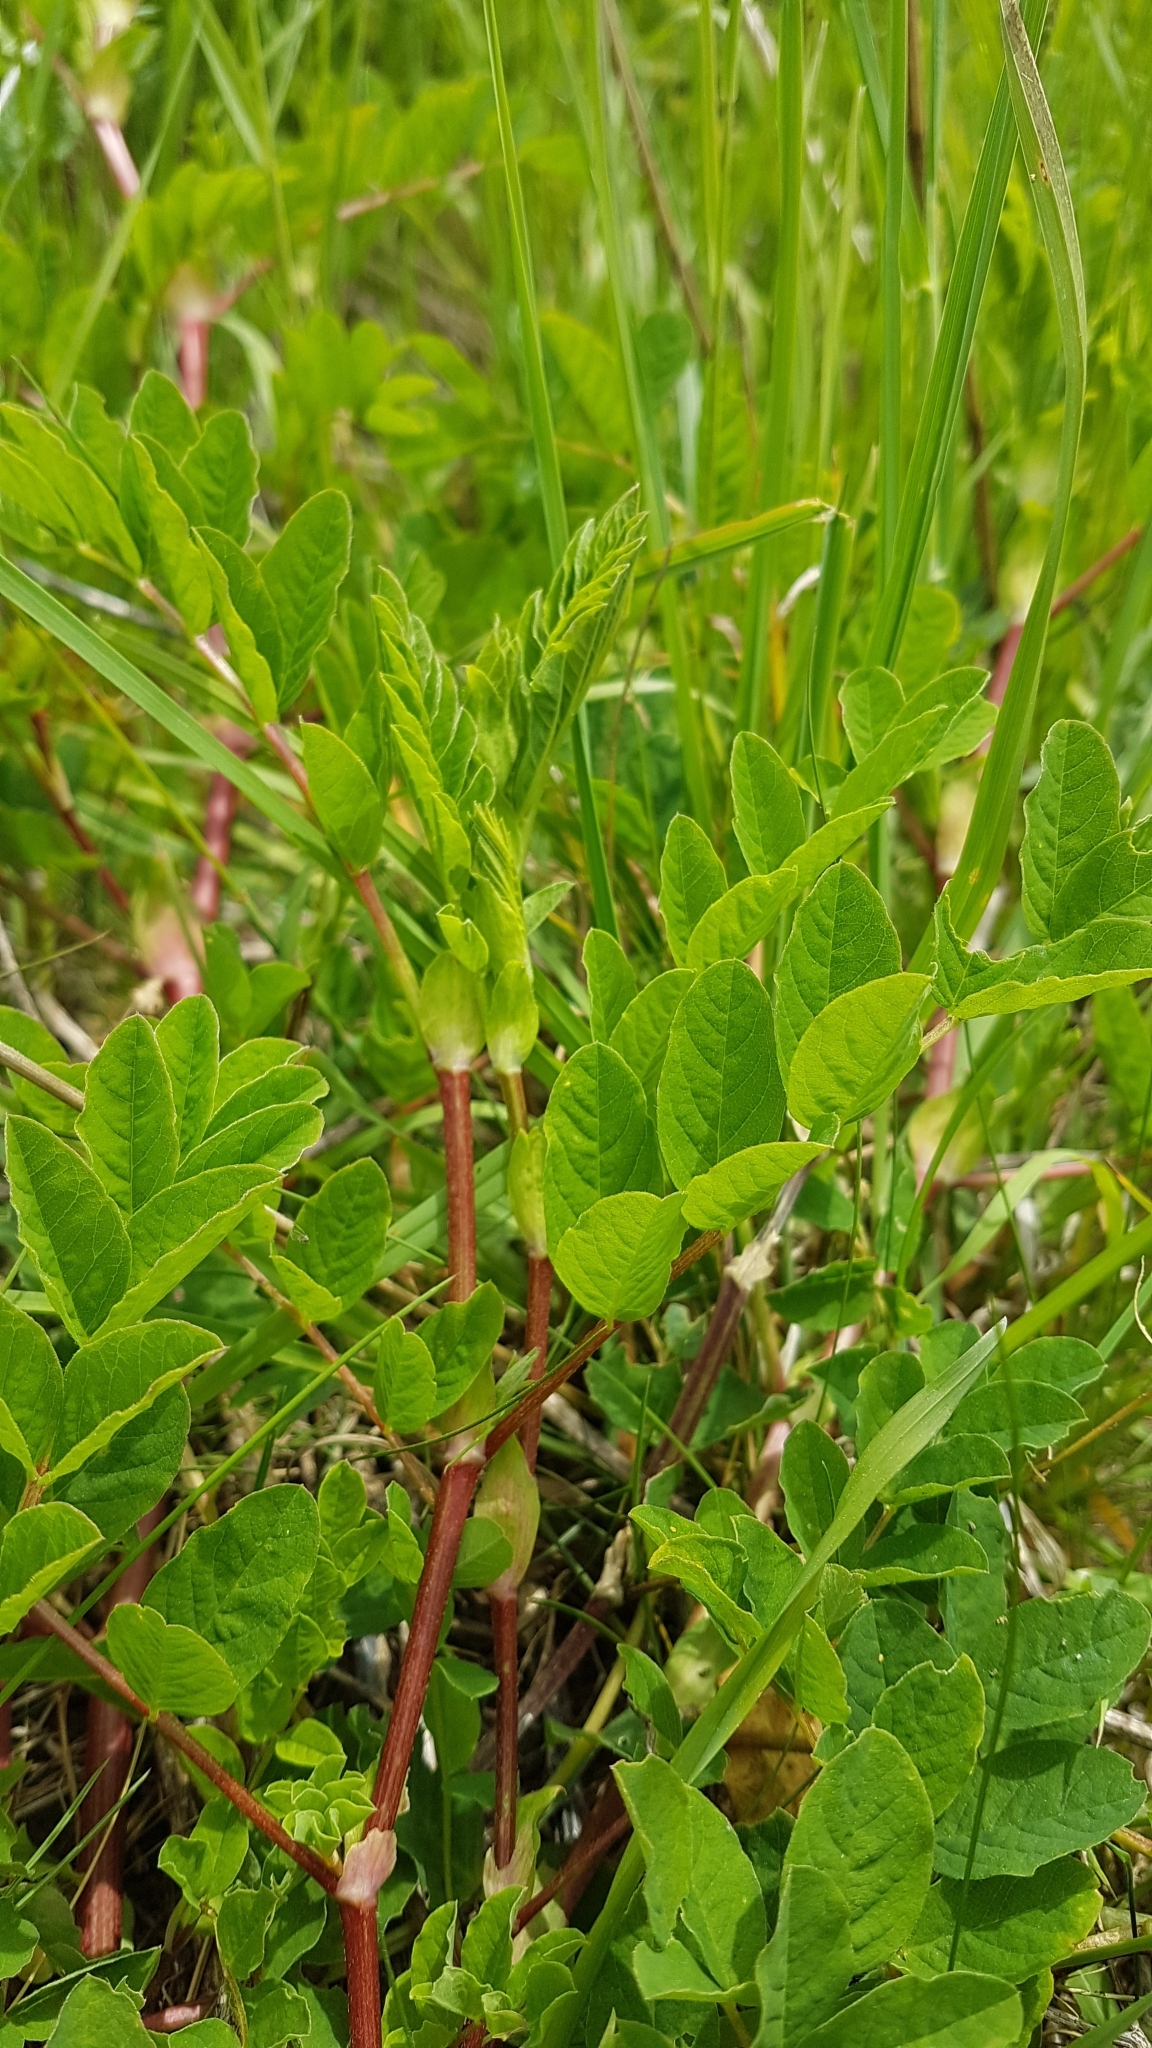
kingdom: Plantae
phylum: Tracheophyta
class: Magnoliopsida
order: Fabales
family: Fabaceae
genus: Astragalus
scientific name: Astragalus glycyphyllos
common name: Wild liquorice
